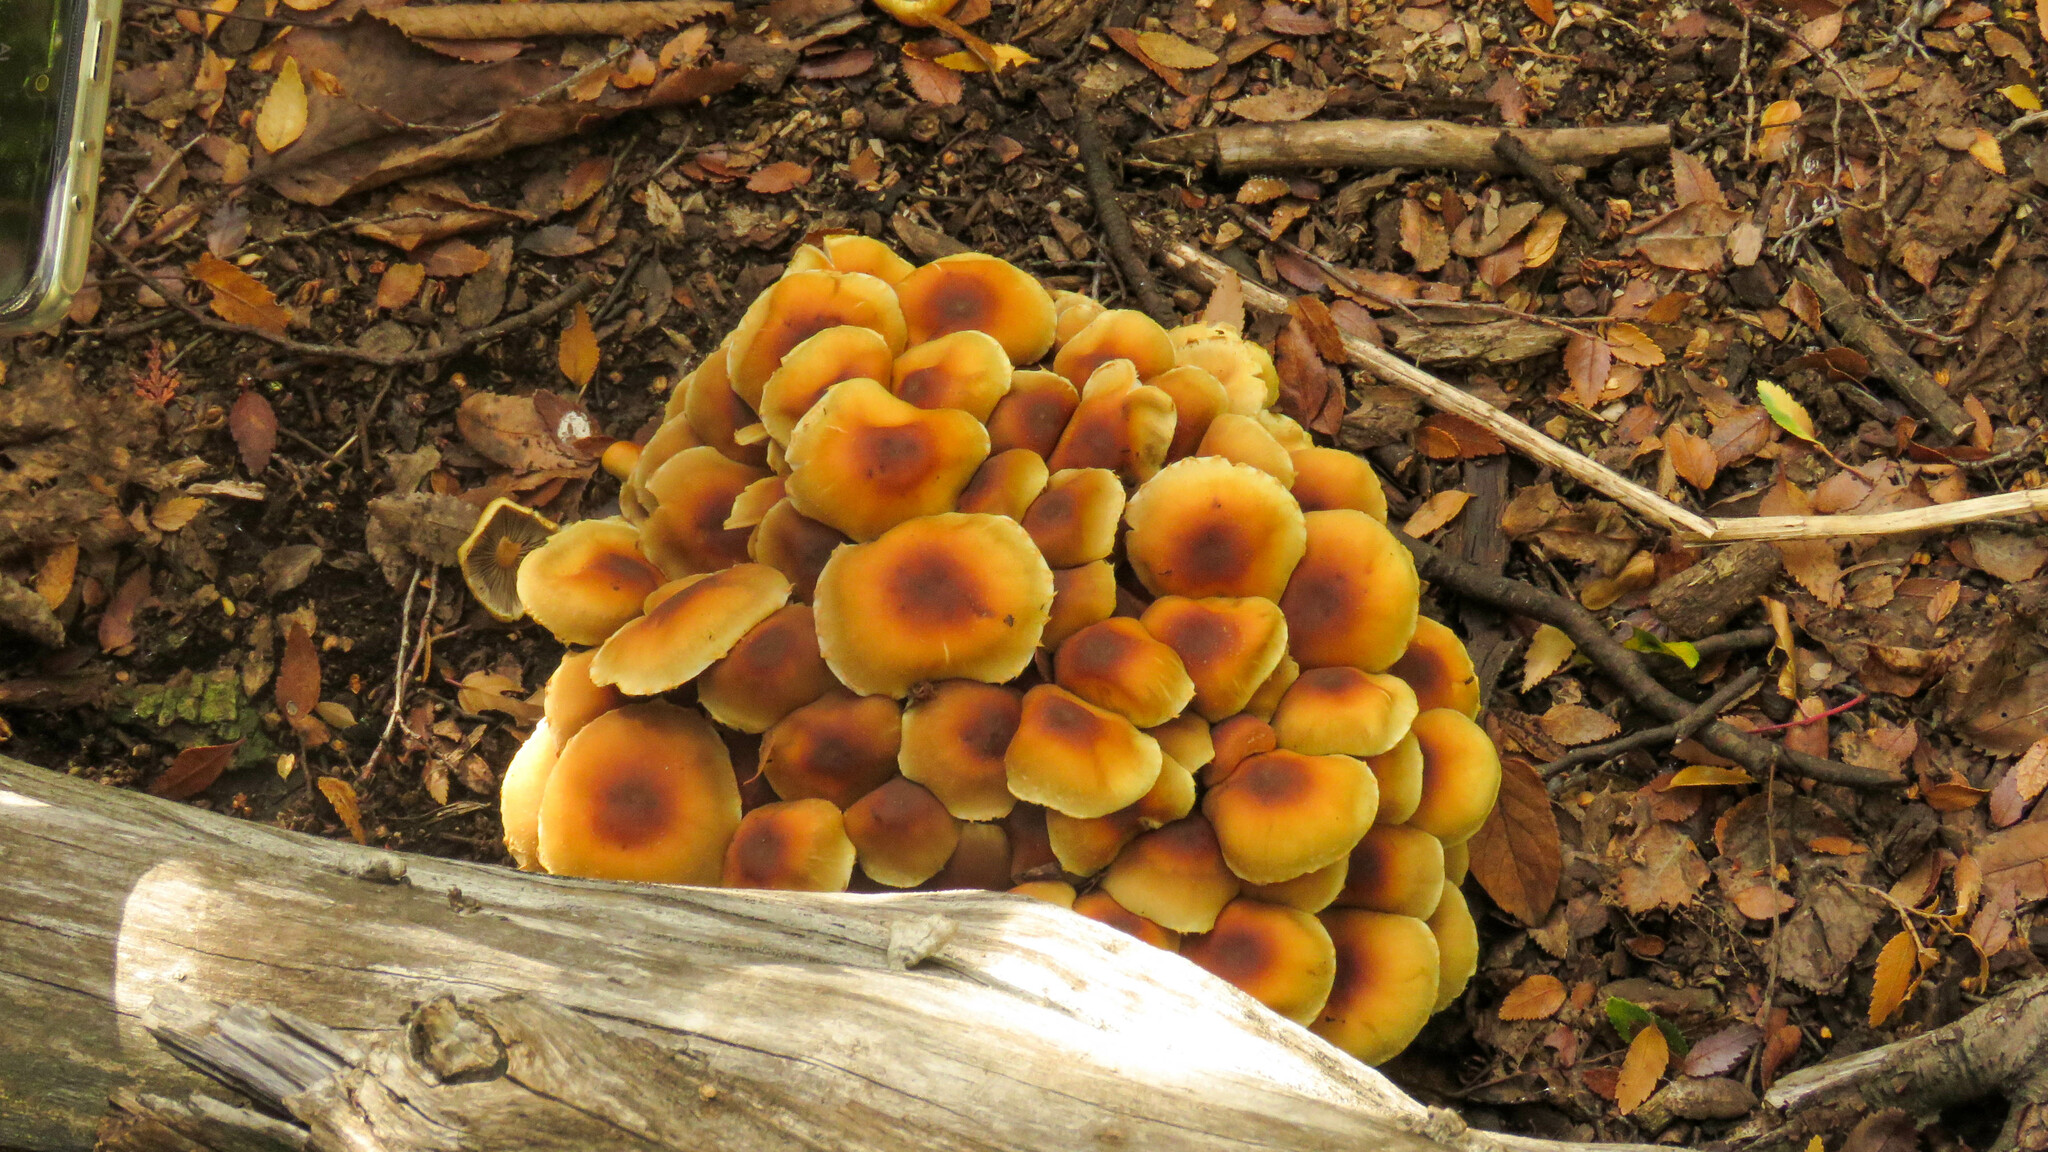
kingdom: Fungi
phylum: Basidiomycota
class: Agaricomycetes
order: Agaricales
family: Strophariaceae
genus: Hypholoma
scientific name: Hypholoma frowardii
